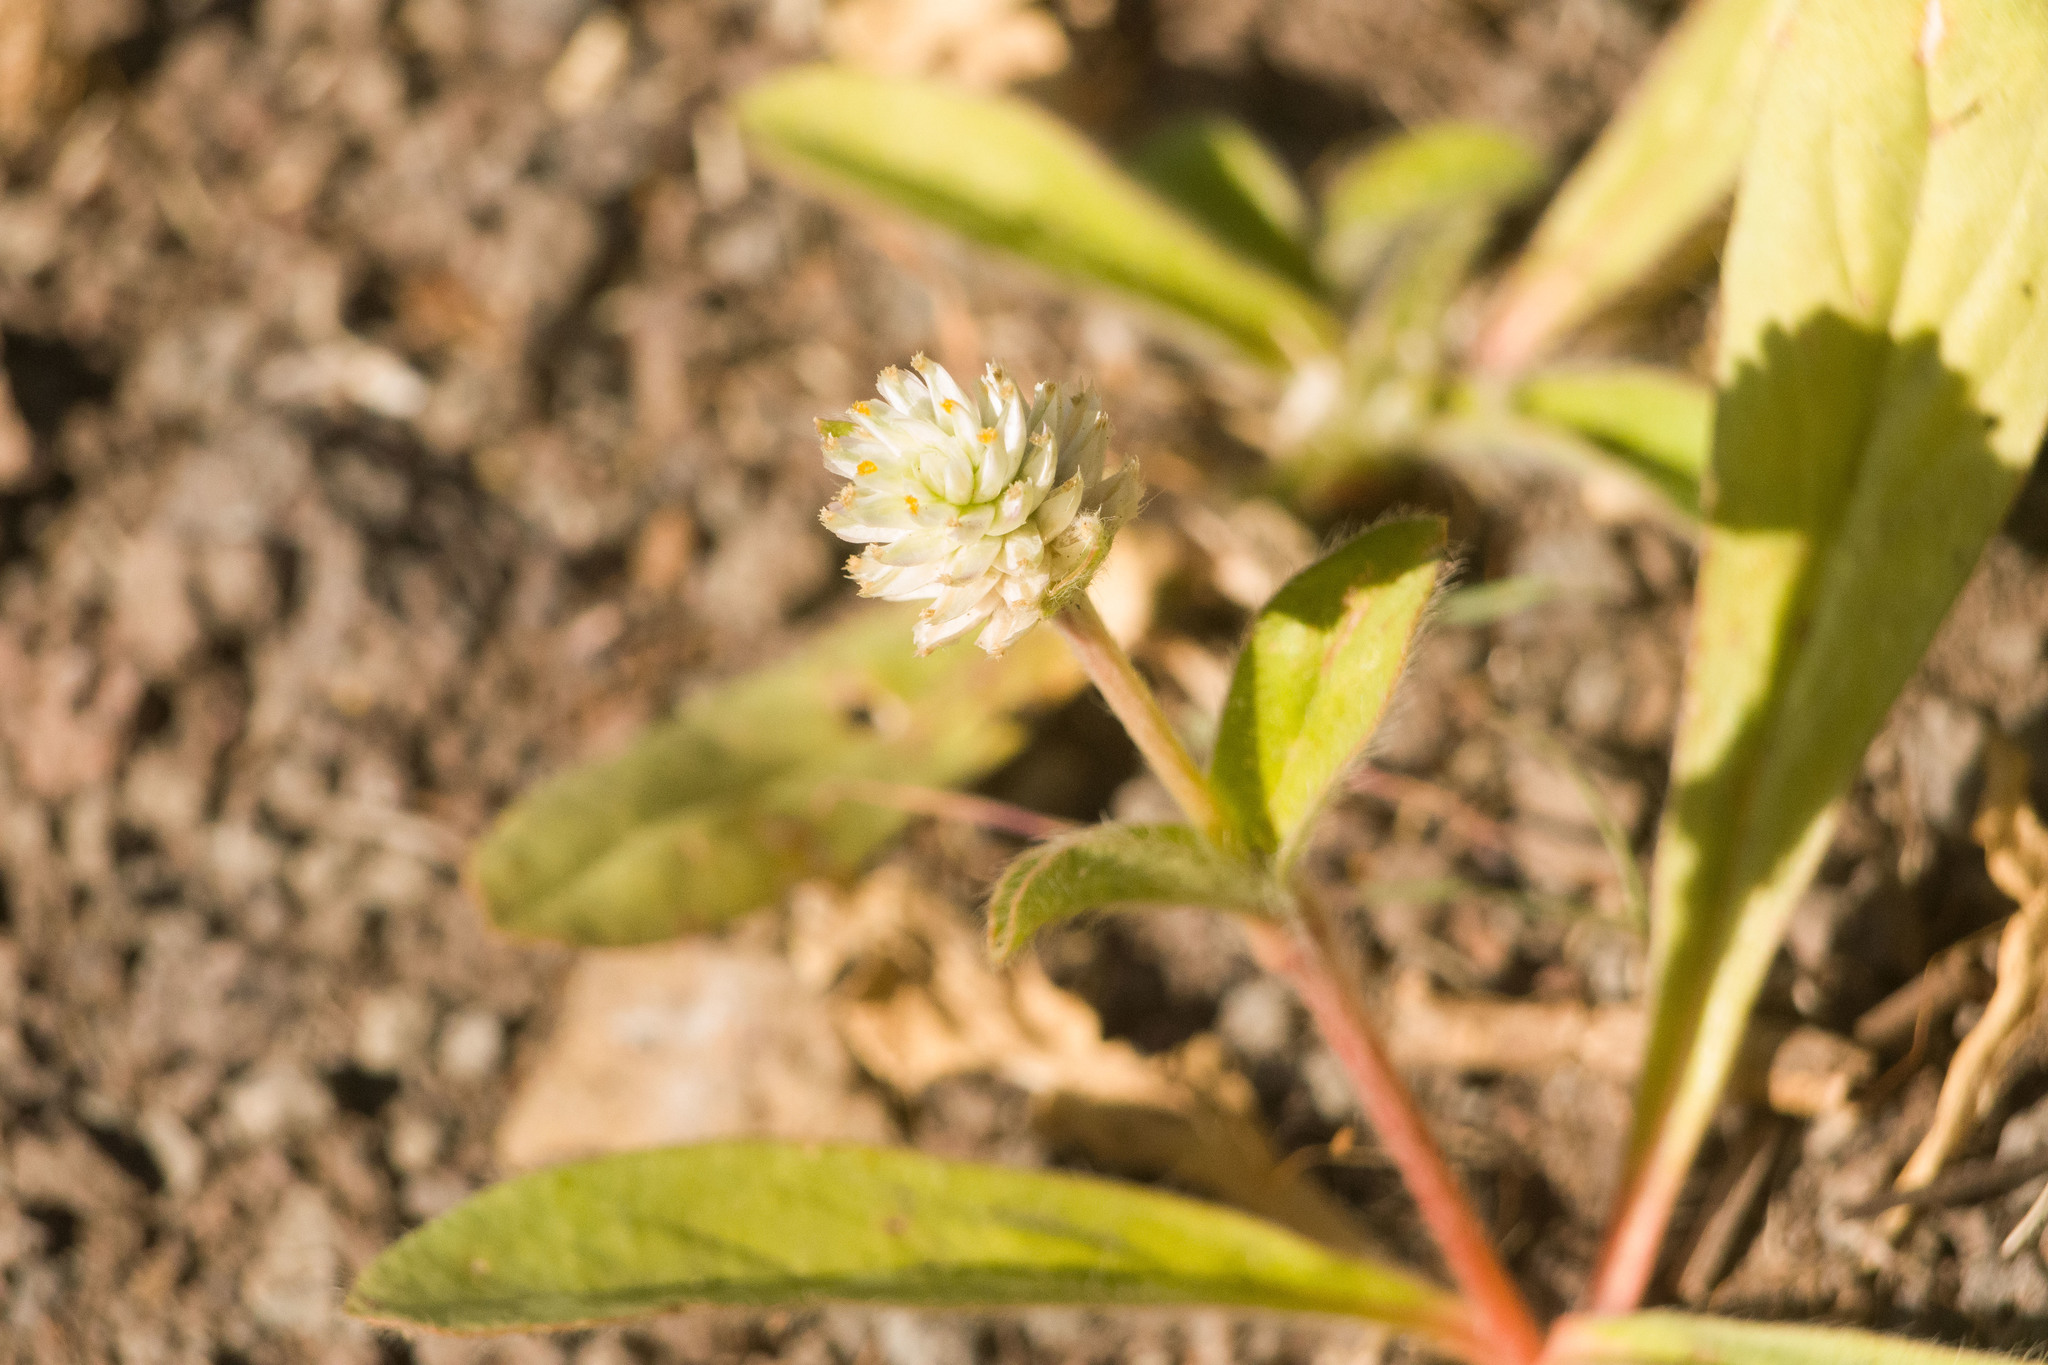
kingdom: Plantae
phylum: Tracheophyta
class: Magnoliopsida
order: Caryophyllales
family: Amaranthaceae
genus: Gomphrena
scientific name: Gomphrena celosioides
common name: Gomphrena-weed
